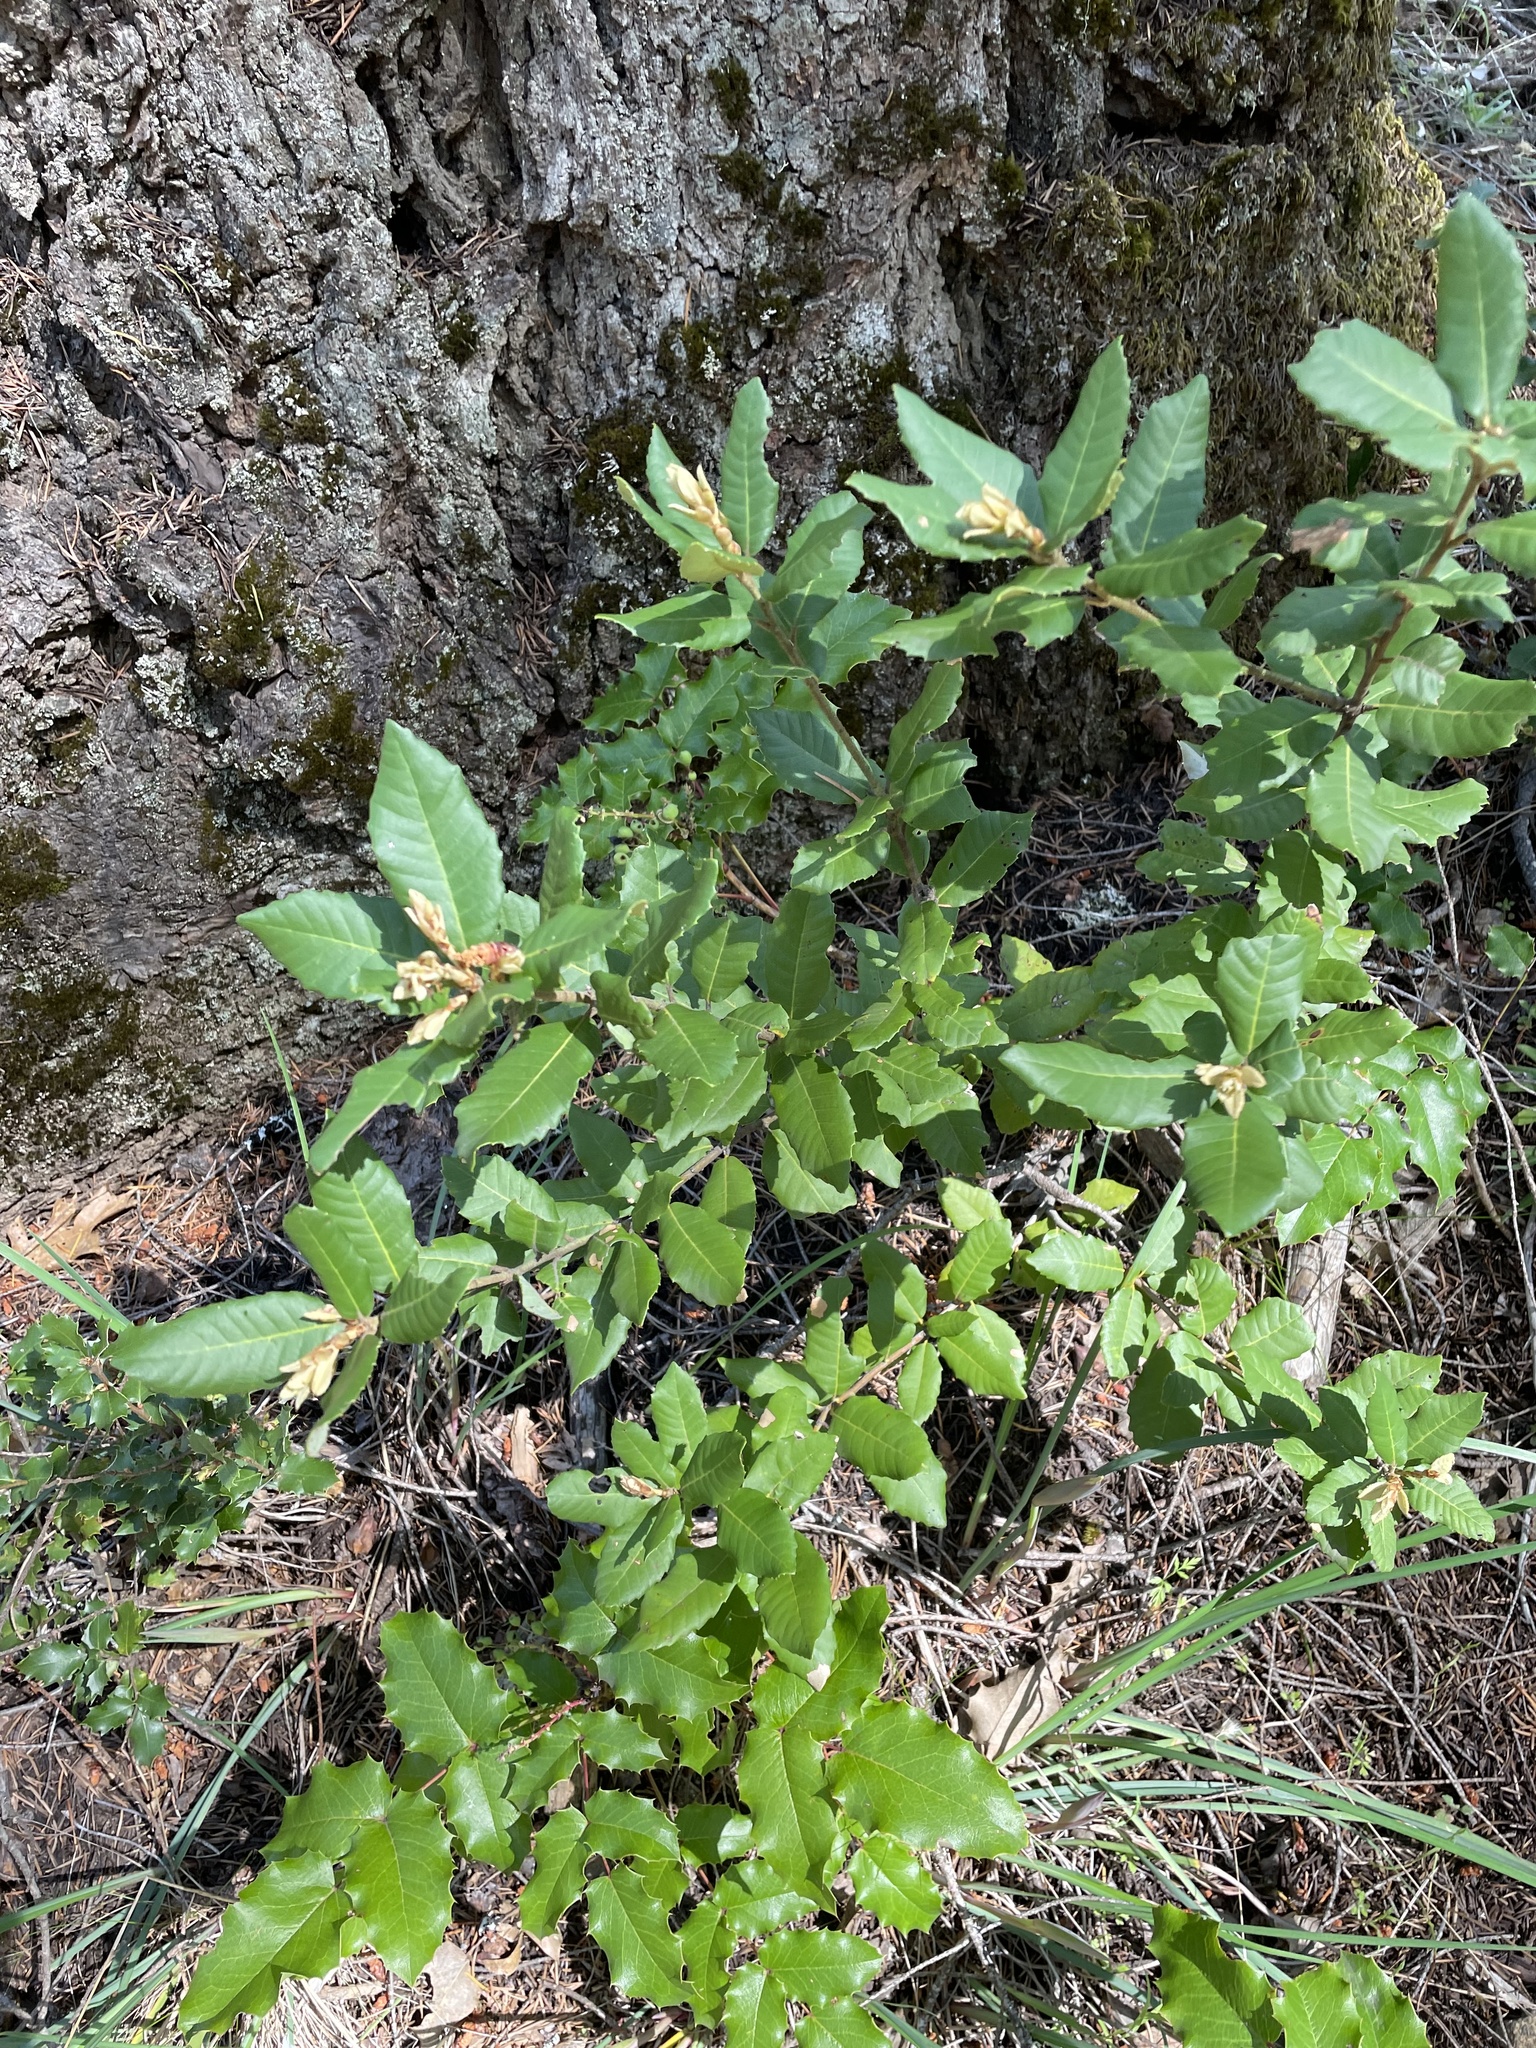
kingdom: Plantae
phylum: Tracheophyta
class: Magnoliopsida
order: Fagales
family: Fagaceae
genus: Quercus
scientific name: Quercus sadleriana
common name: Deer oak
